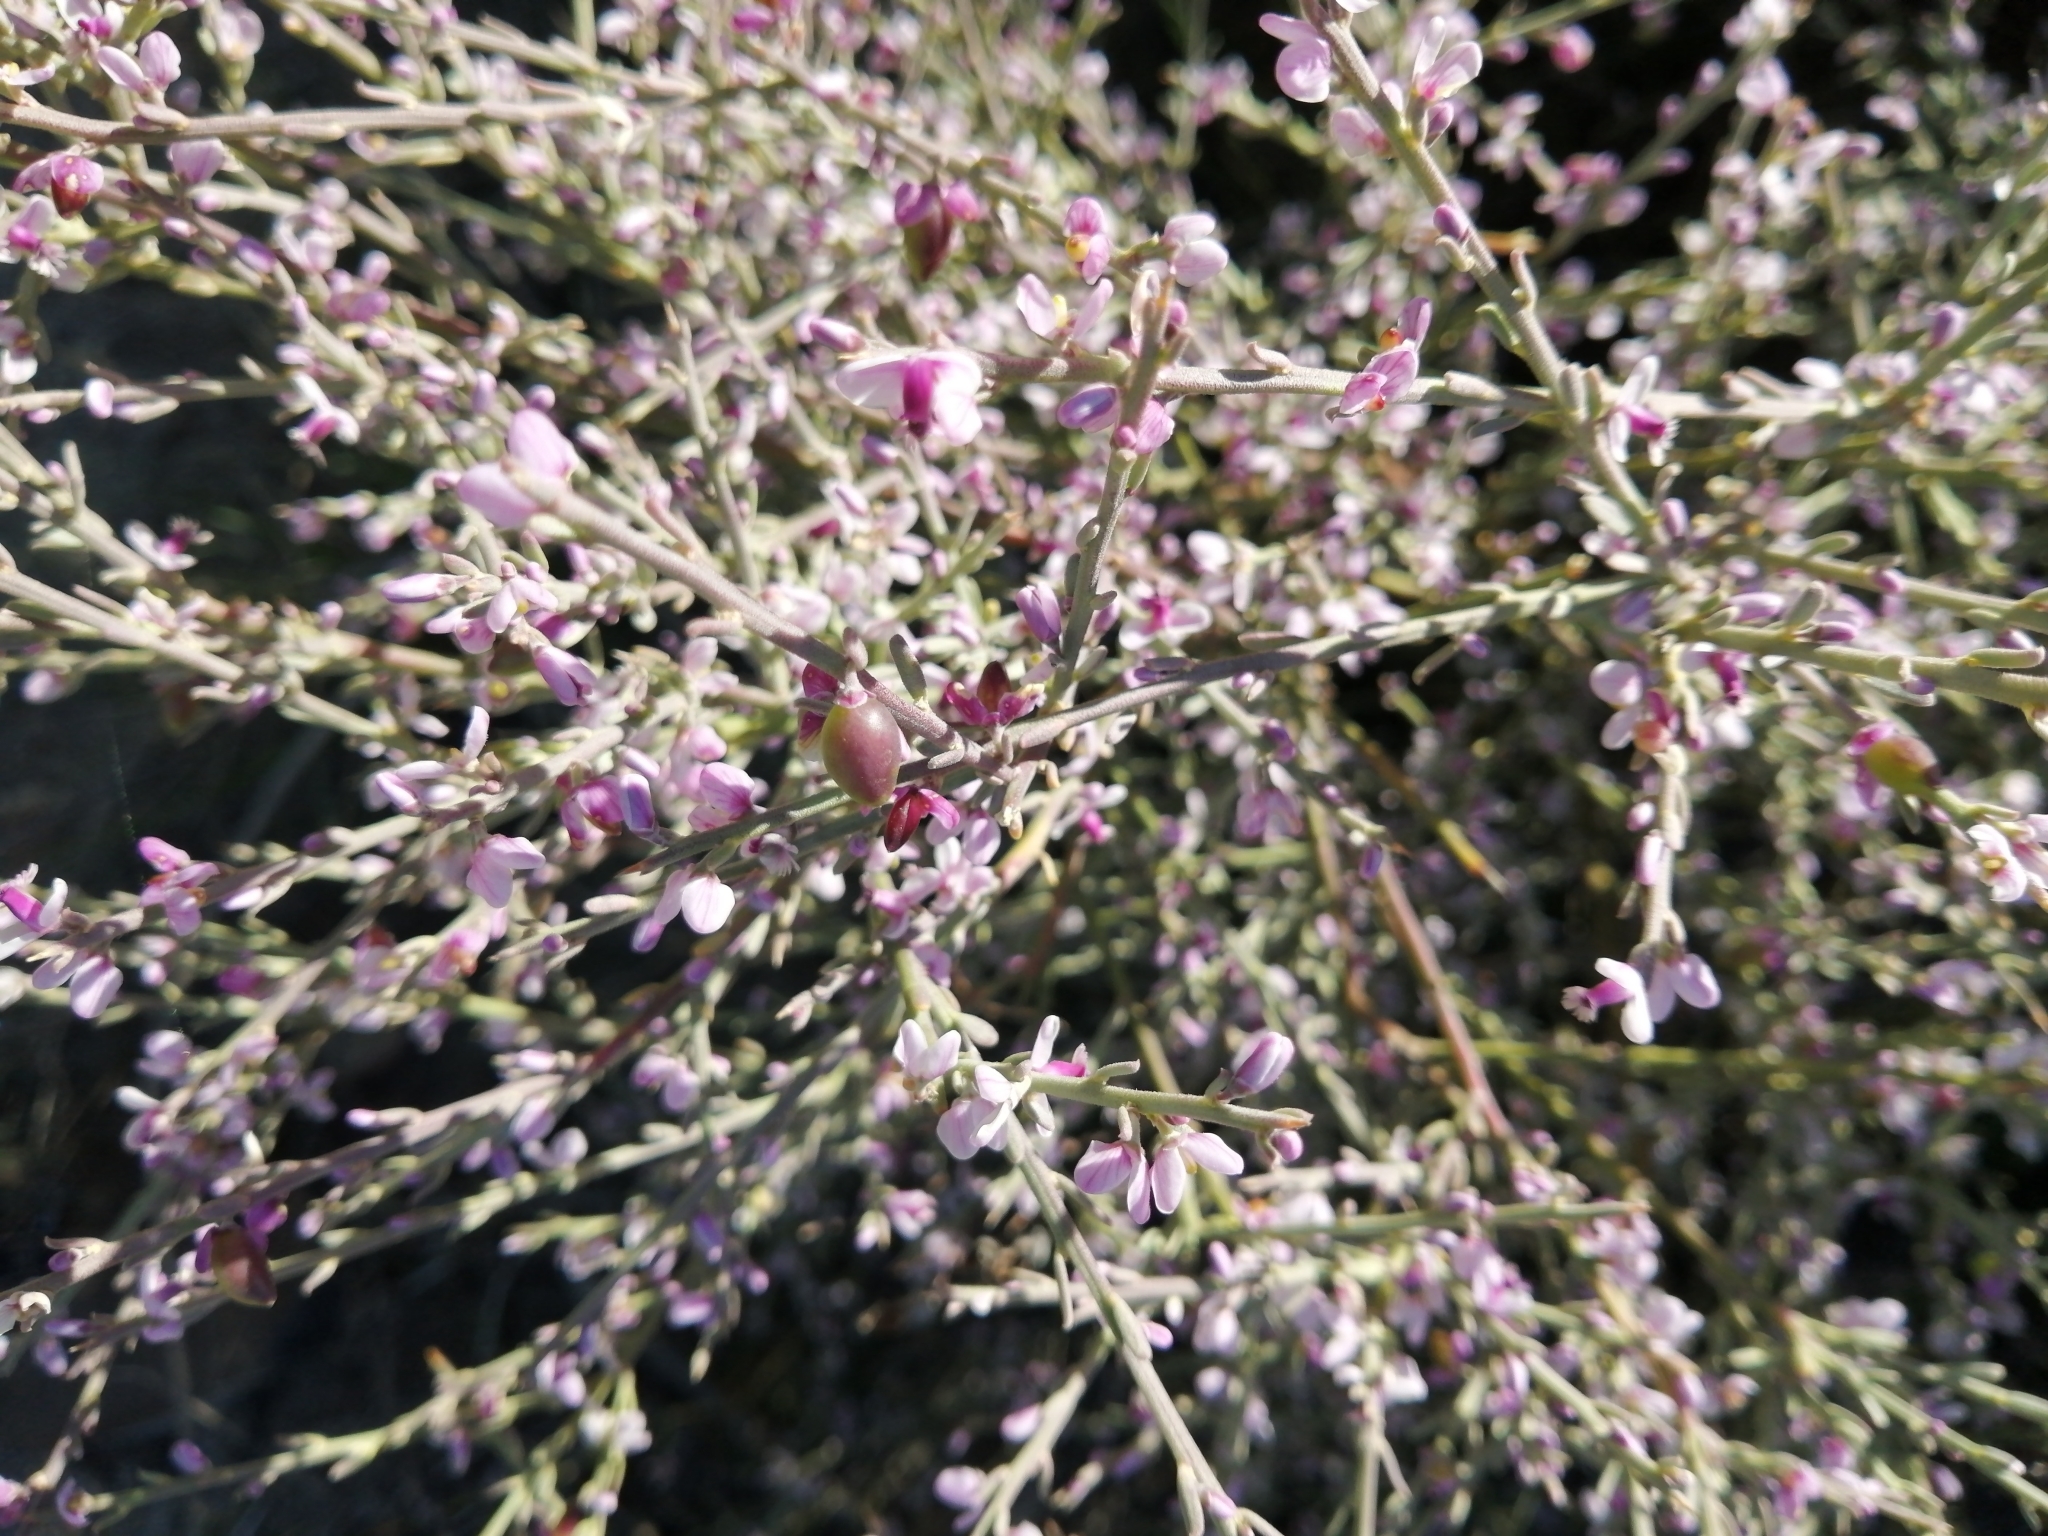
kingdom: Plantae
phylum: Tracheophyta
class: Magnoliopsida
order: Fabales
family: Polygalaceae
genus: Muraltia
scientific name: Muraltia spinosa
